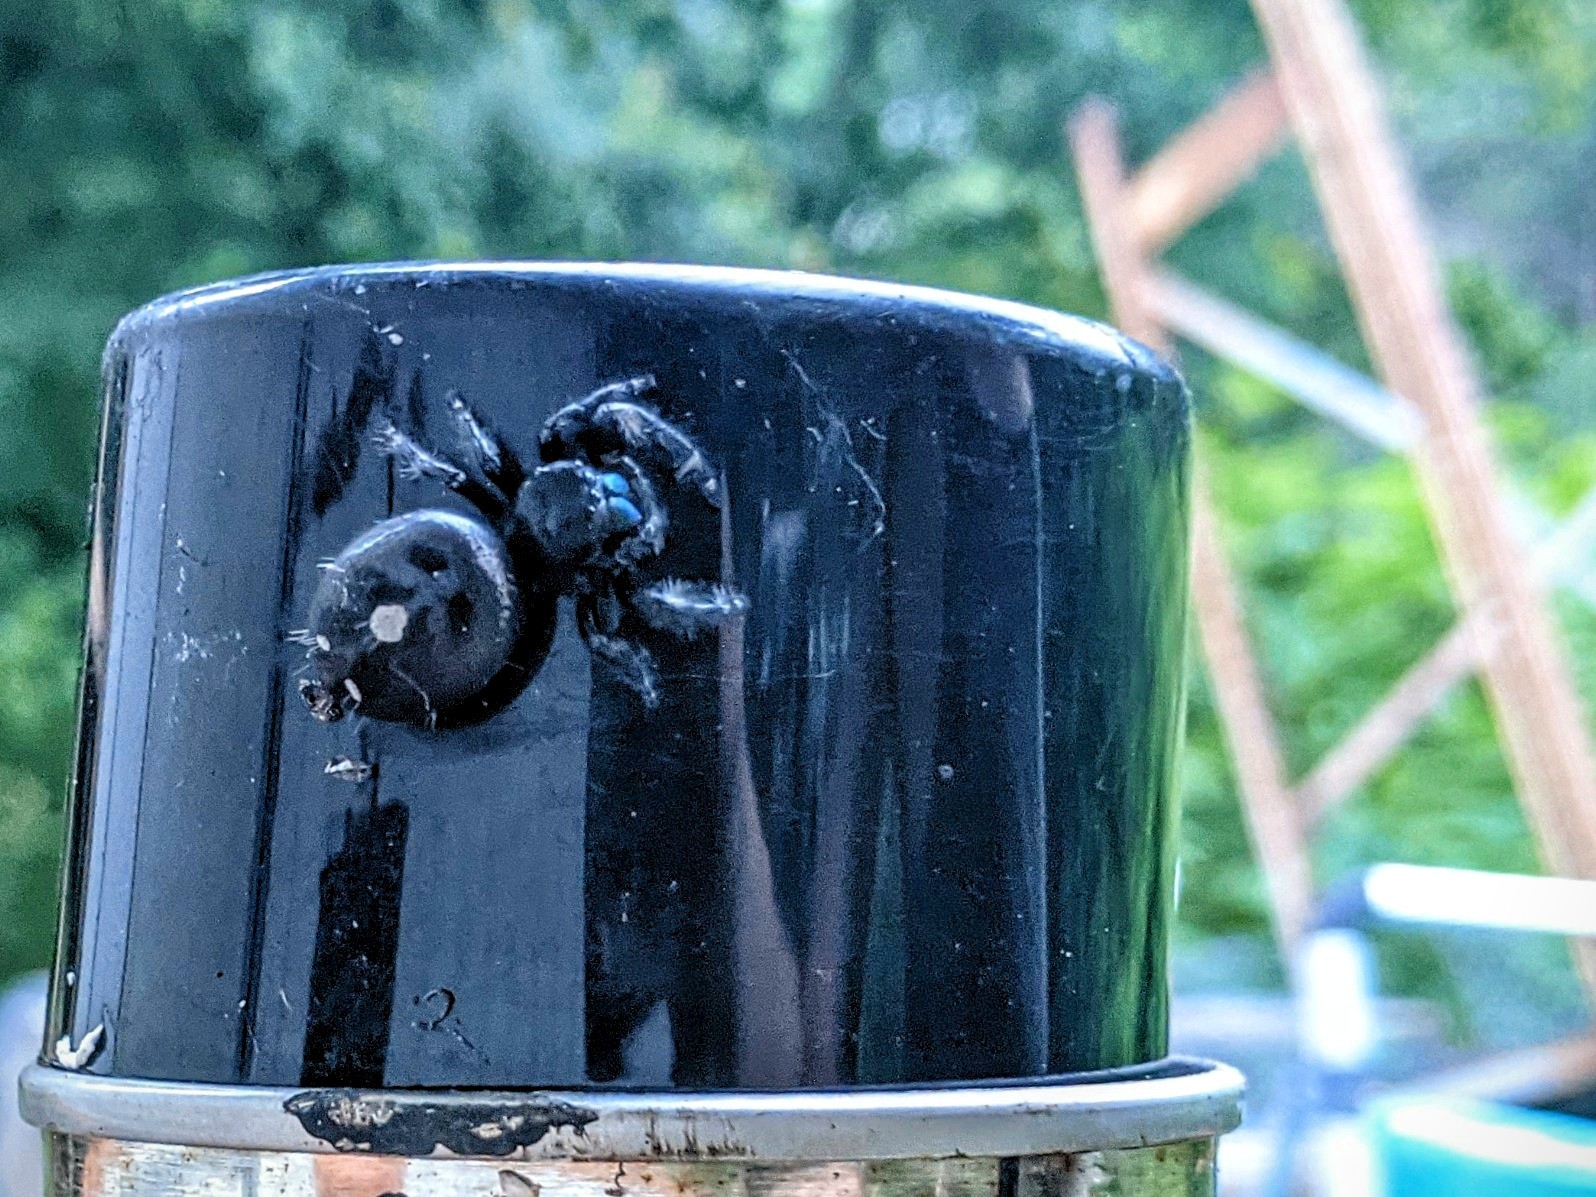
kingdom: Animalia
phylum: Arthropoda
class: Arachnida
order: Araneae
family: Salticidae
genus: Phidippus
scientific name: Phidippus audax
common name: Bold jumper
